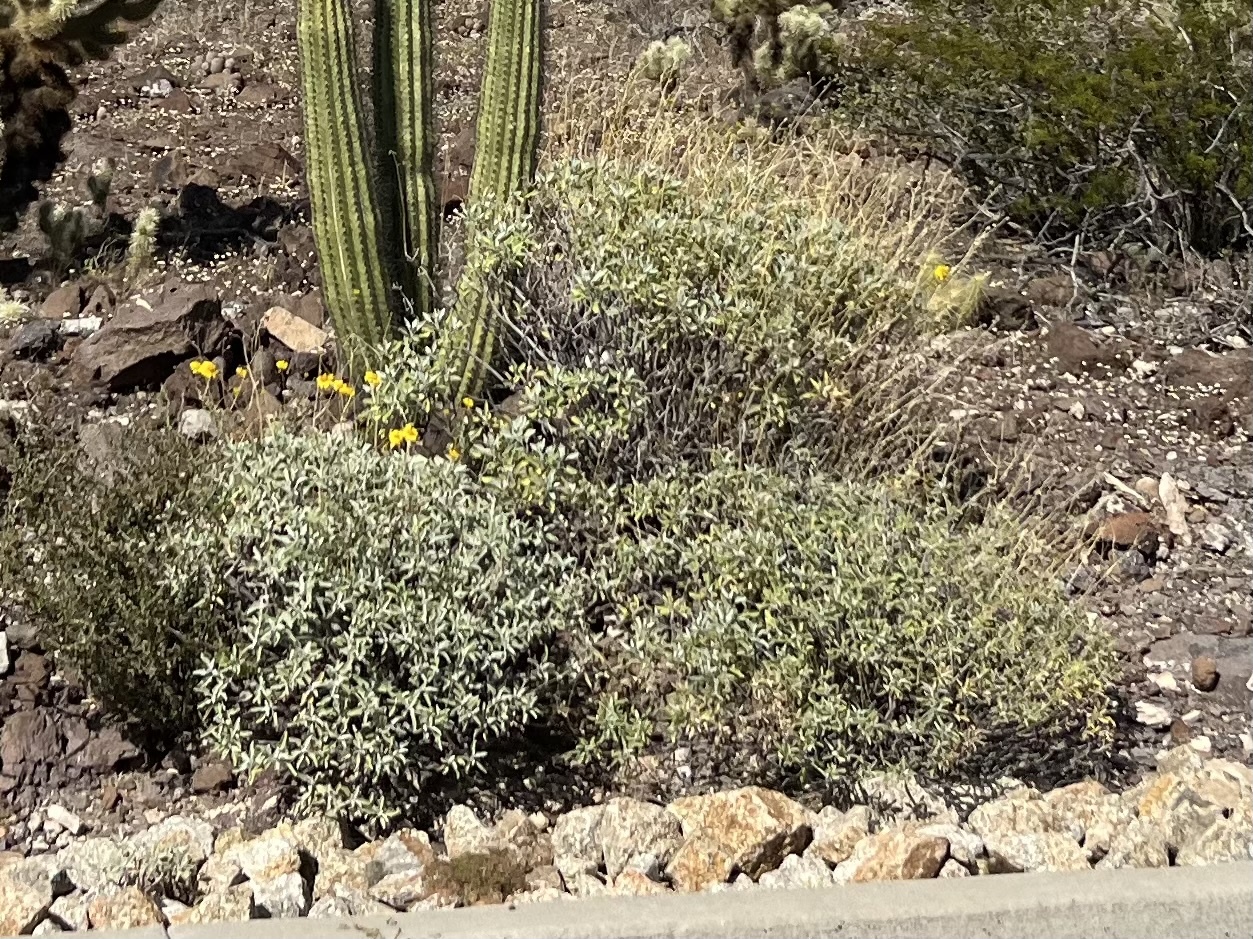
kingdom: Plantae
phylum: Tracheophyta
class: Magnoliopsida
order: Asterales
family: Asteraceae
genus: Encelia
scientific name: Encelia farinosa
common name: Brittlebush
